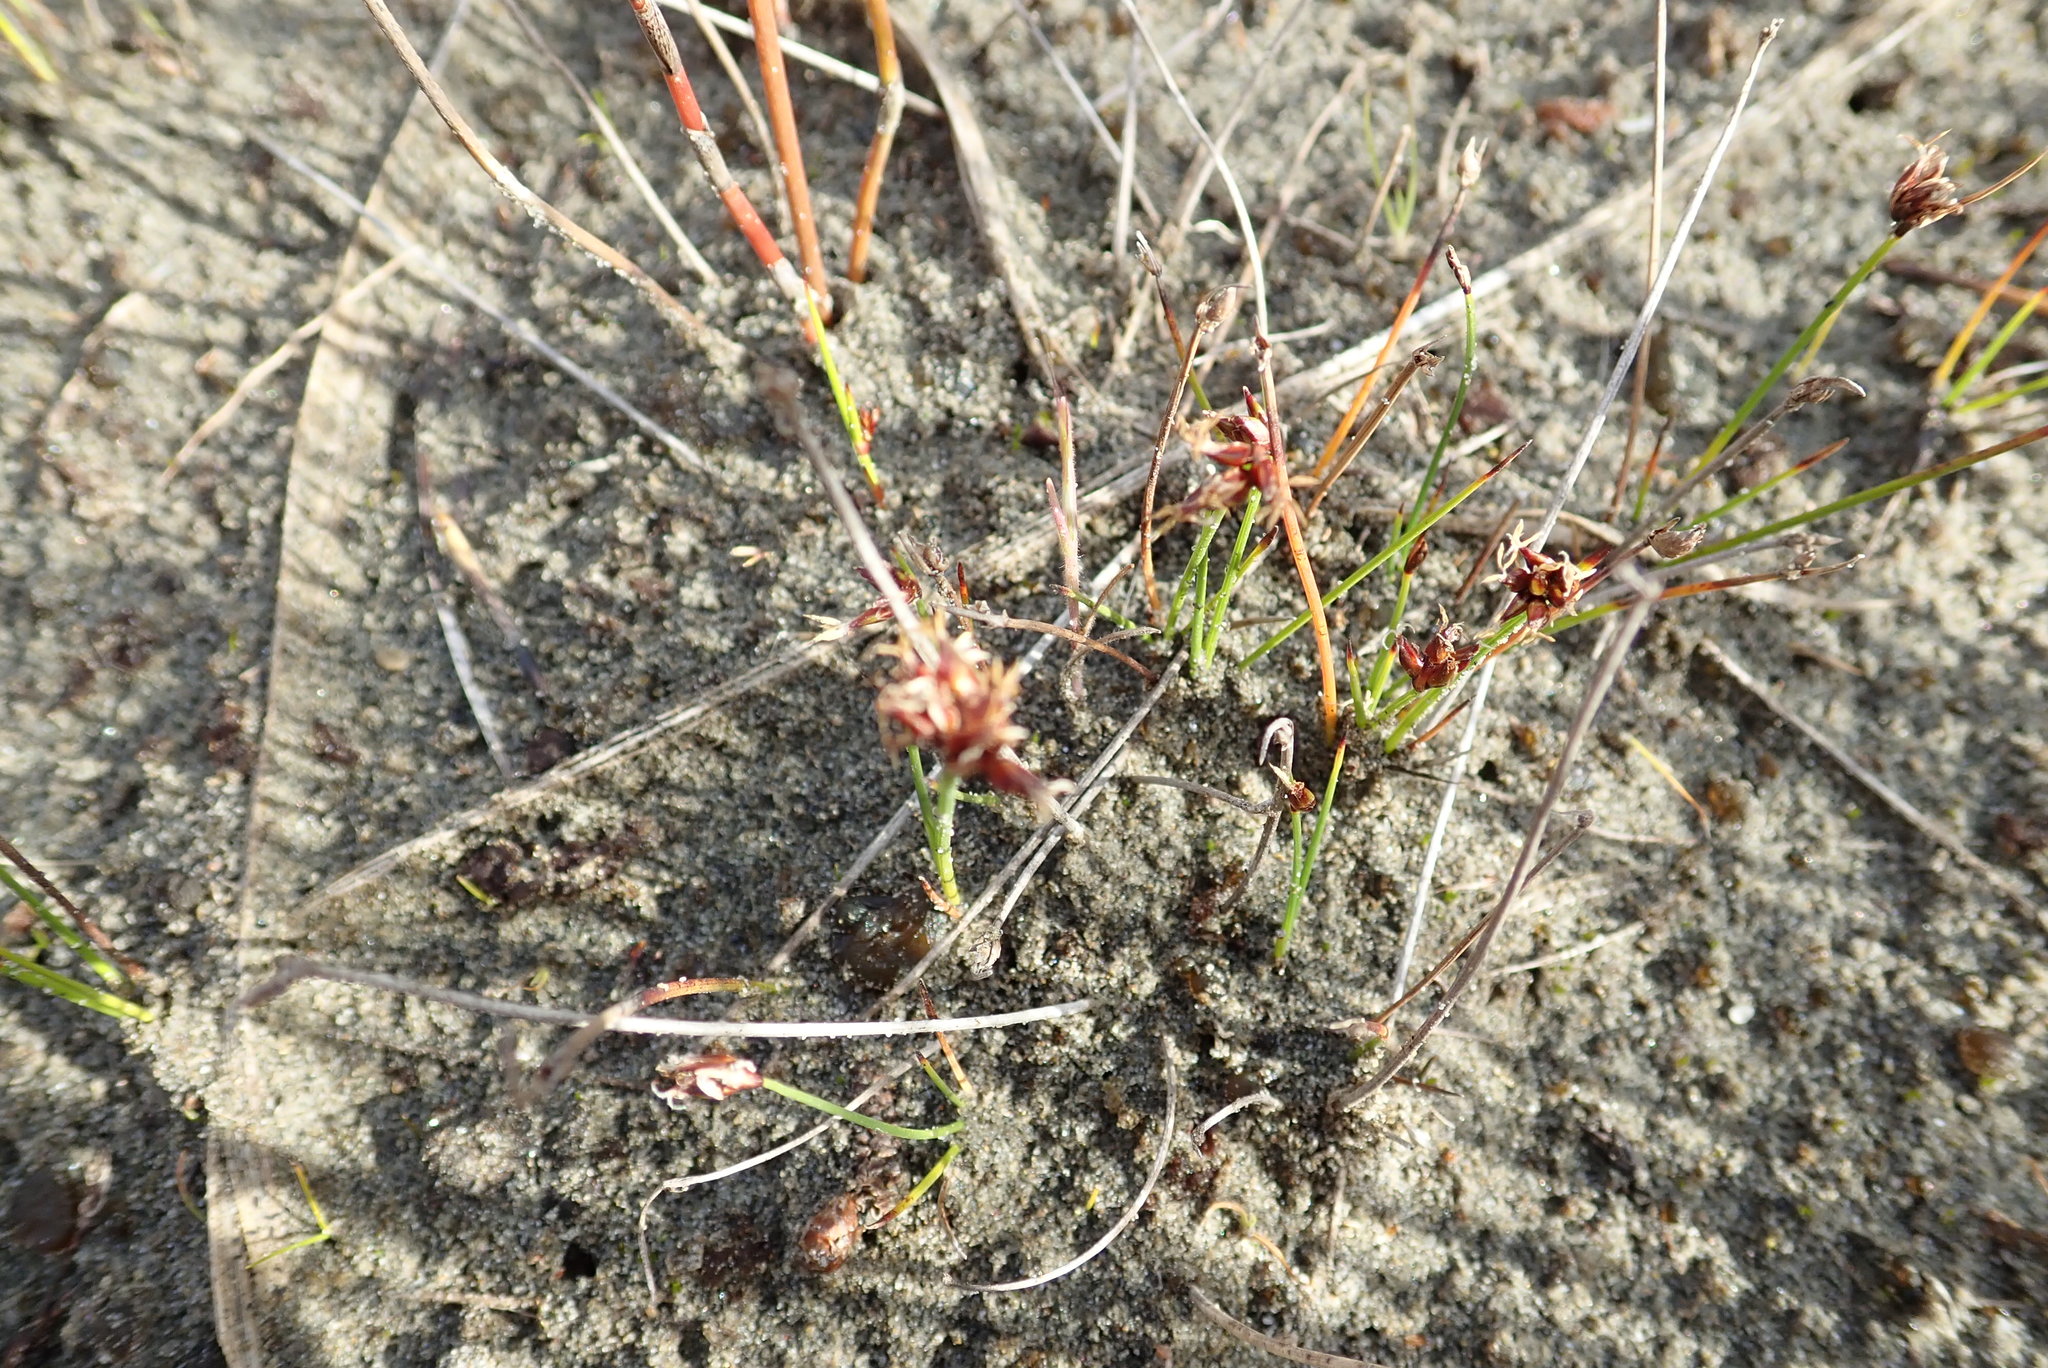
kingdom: Plantae
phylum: Tracheophyta
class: Liliopsida
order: Poales
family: Cyperaceae
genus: Schoenus
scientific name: Schoenus nitens
